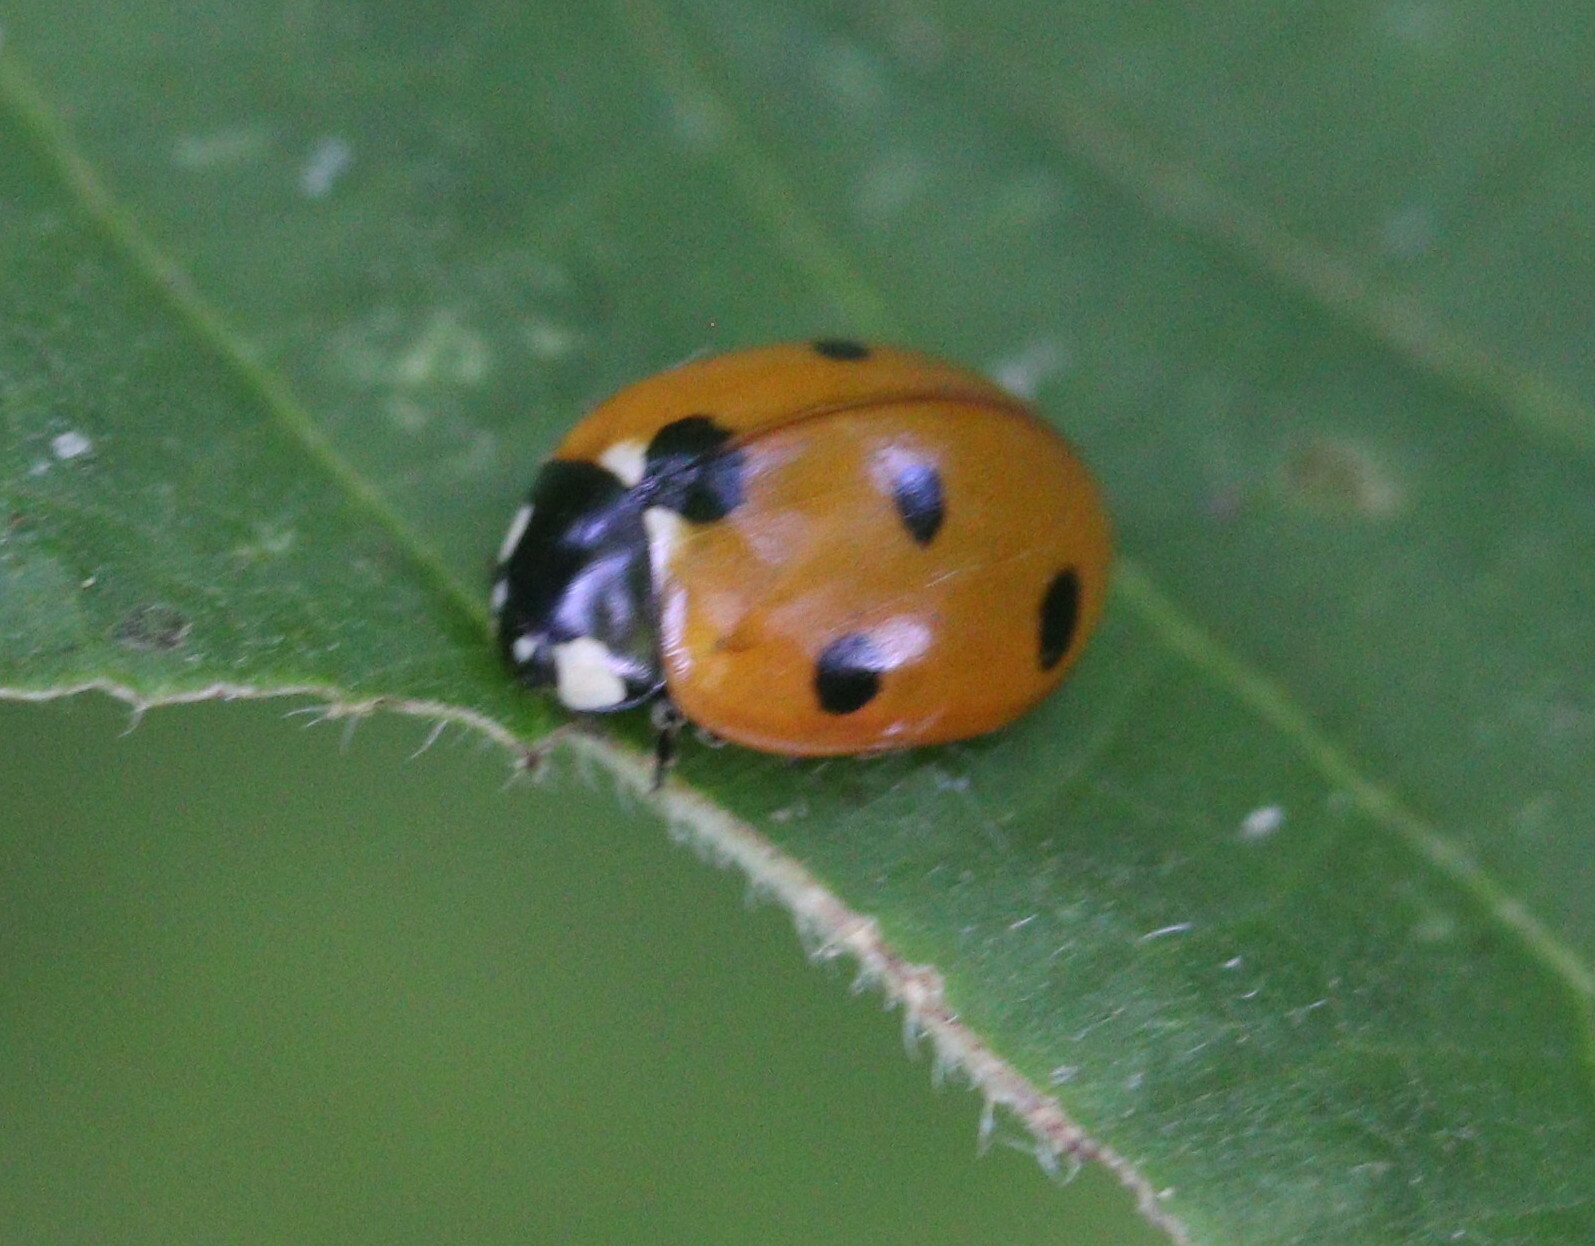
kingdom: Animalia
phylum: Arthropoda
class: Insecta
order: Coleoptera
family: Coccinellidae
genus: Coccinella
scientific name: Coccinella septempunctata
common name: Sevenspotted lady beetle
